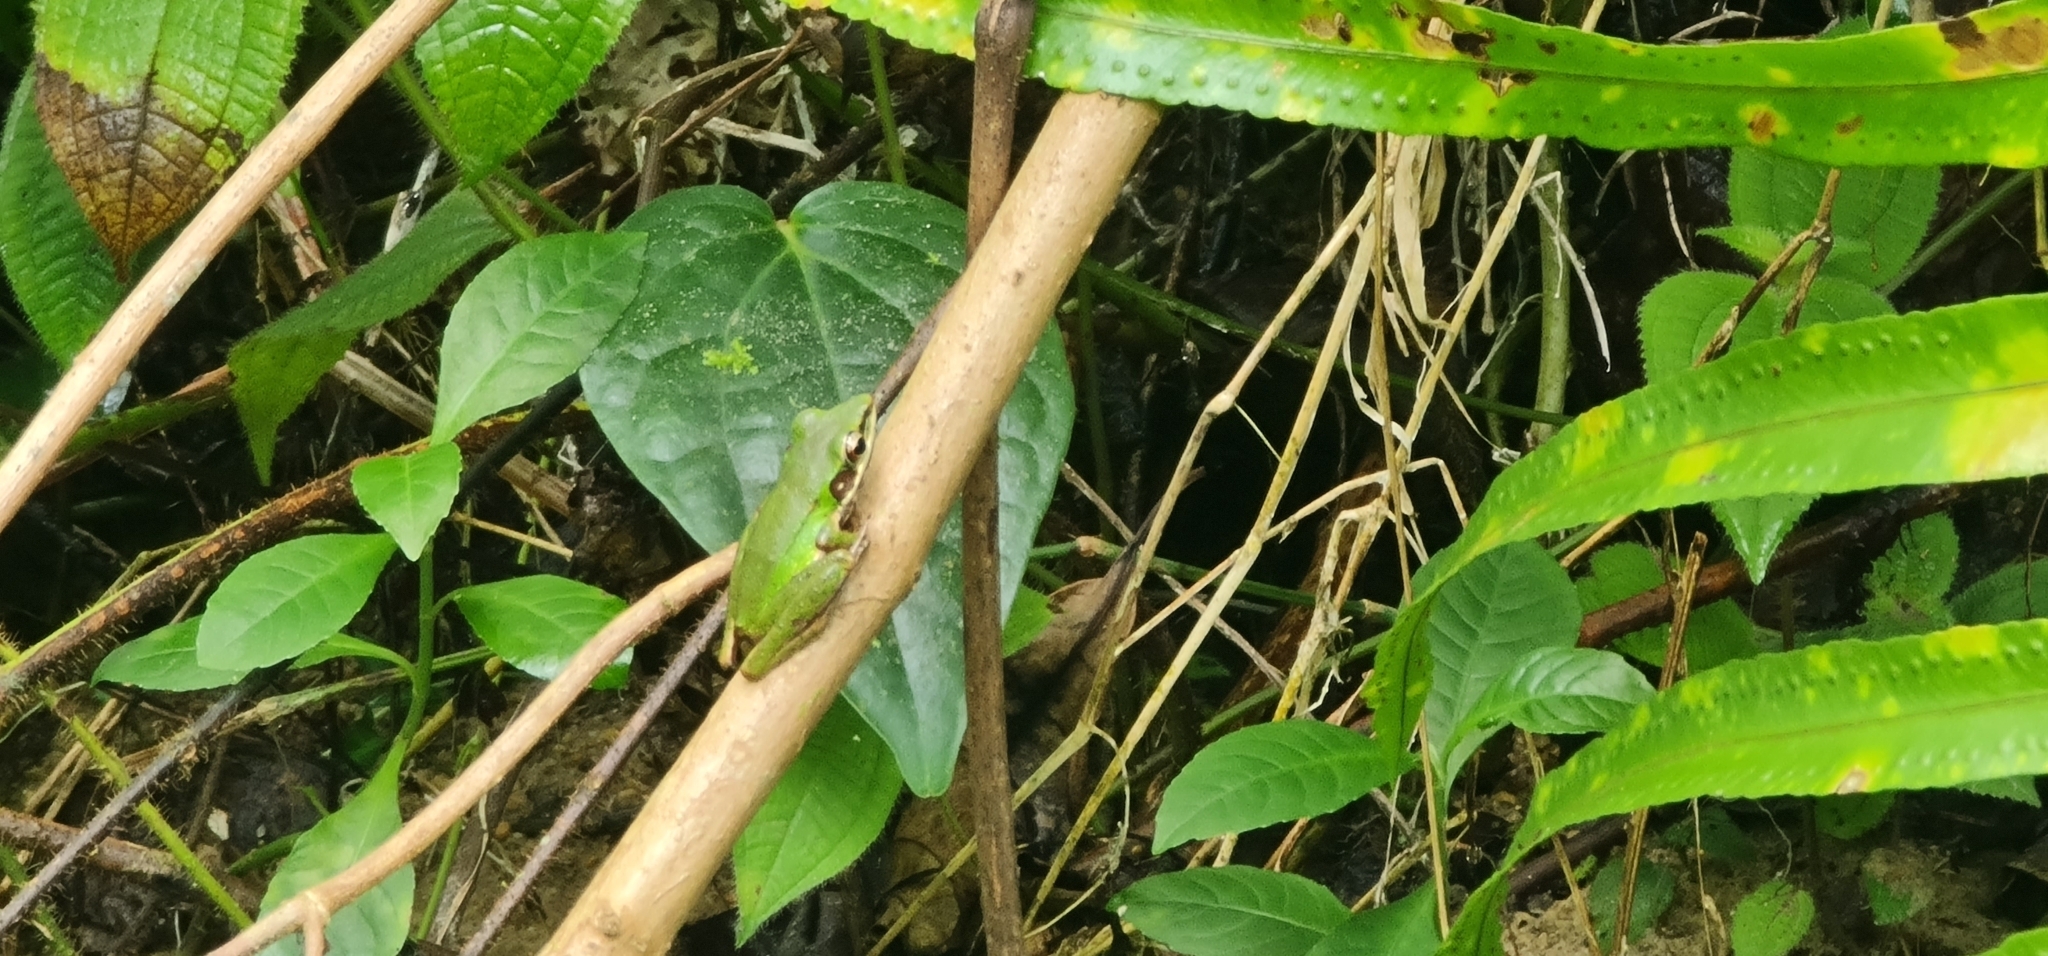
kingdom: Animalia
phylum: Chordata
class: Amphibia
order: Anura
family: Ranidae
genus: Chalcorana
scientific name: Chalcorana labialis
